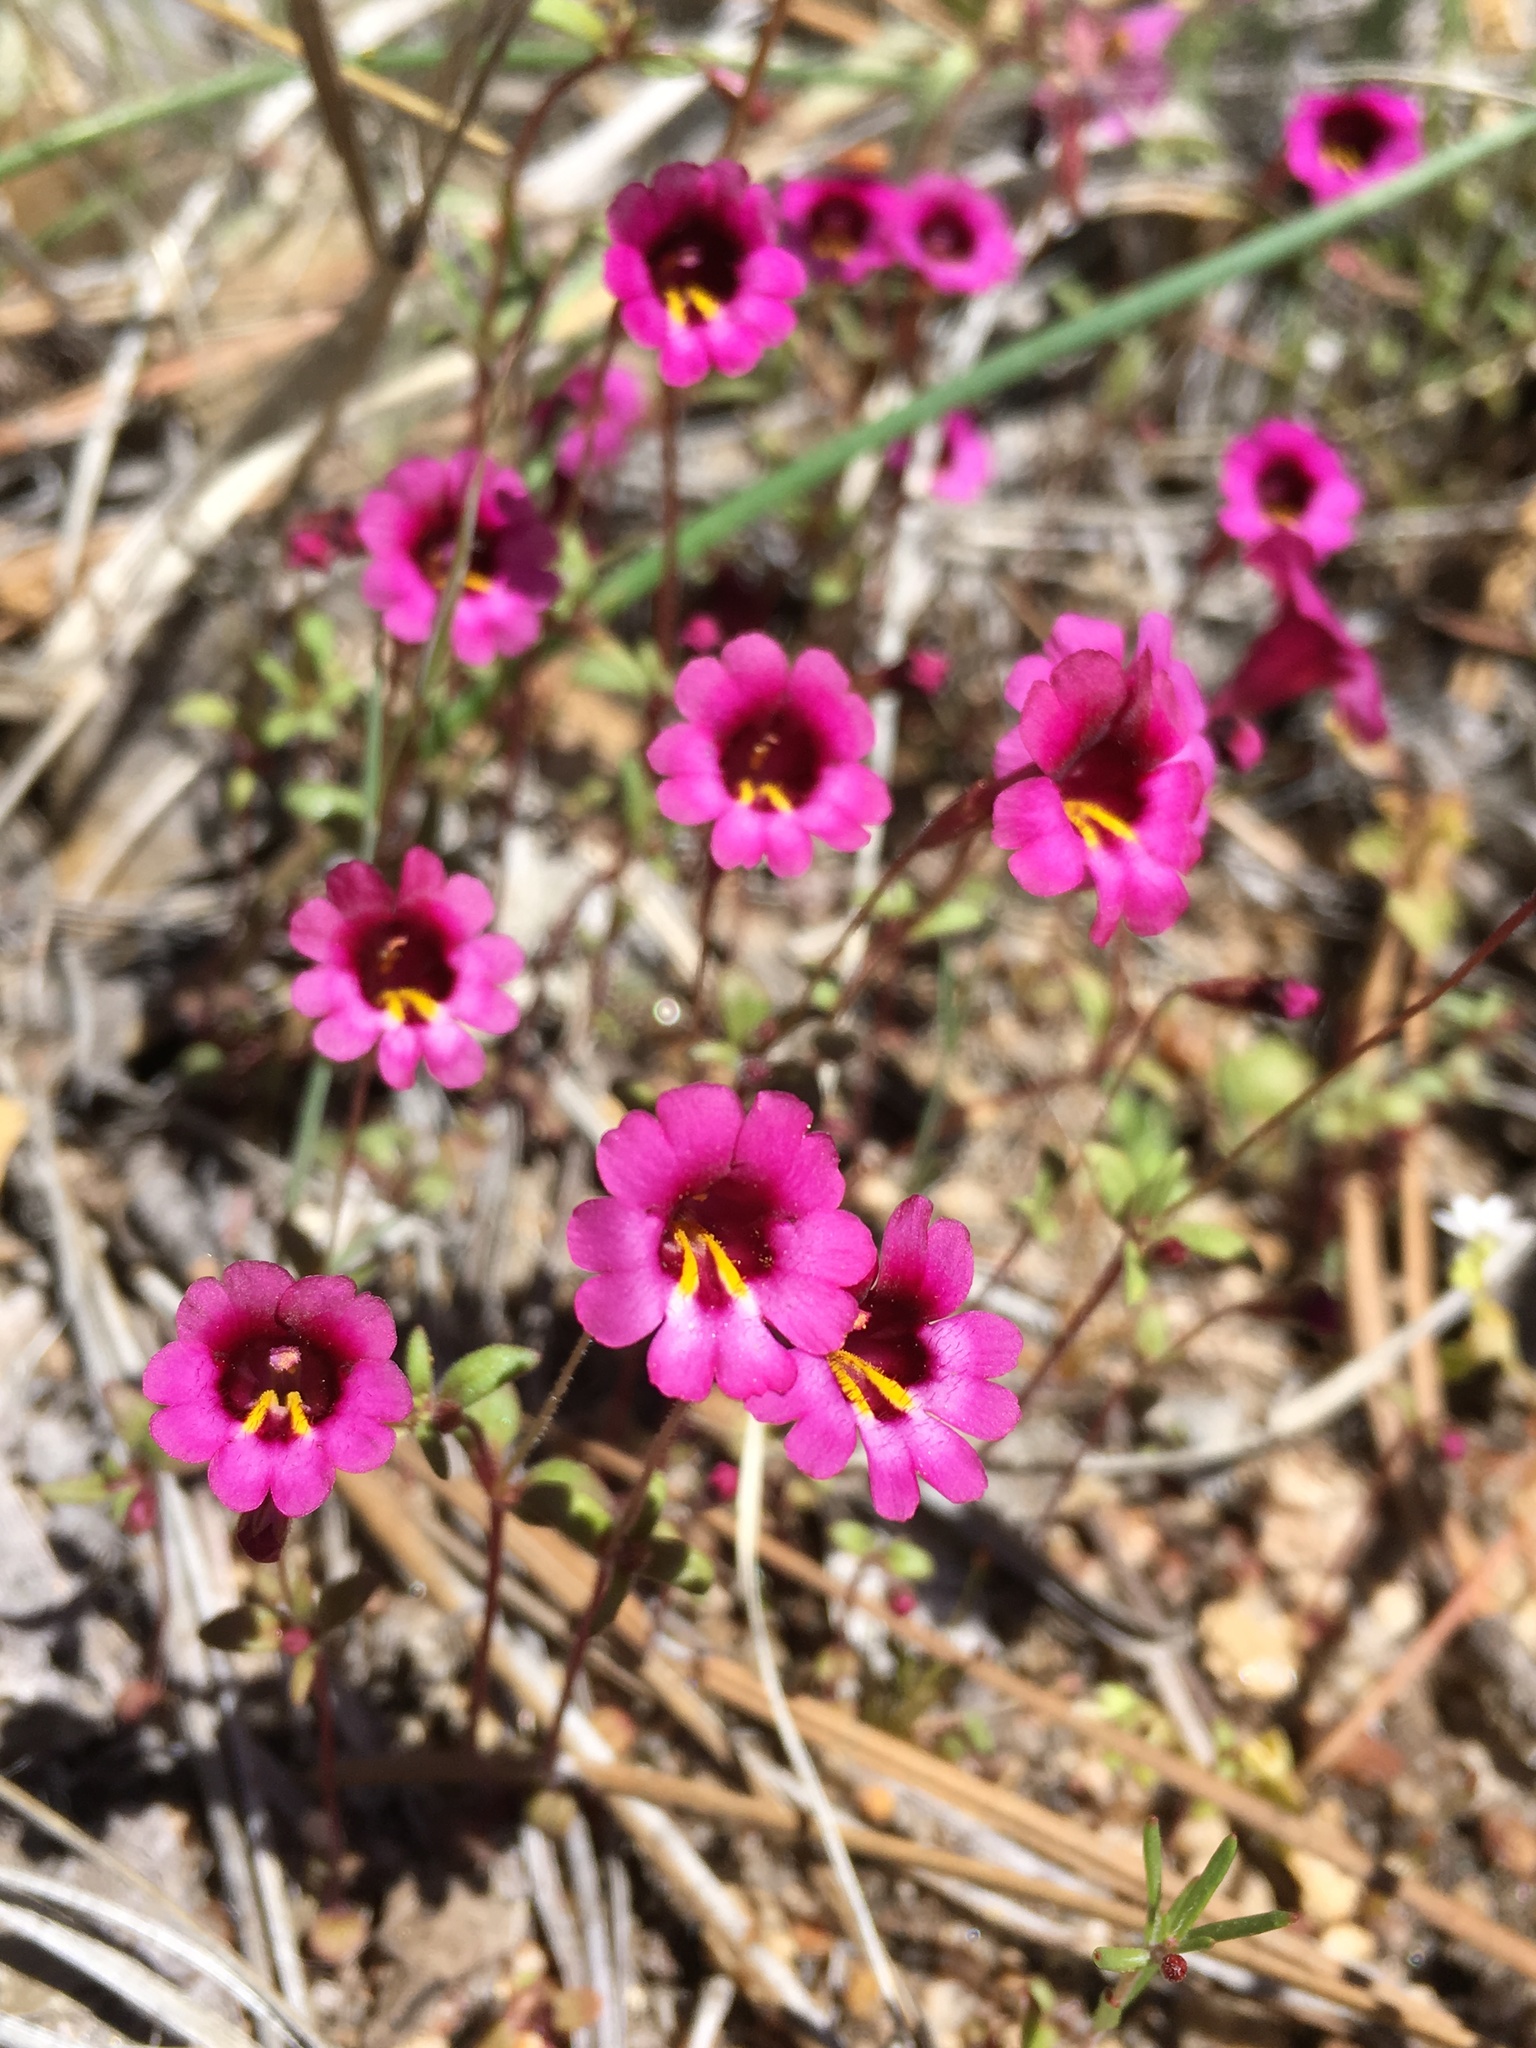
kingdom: Plantae
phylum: Tracheophyta
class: Magnoliopsida
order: Lamiales
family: Phrymaceae
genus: Erythranthe
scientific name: Erythranthe diffusa
